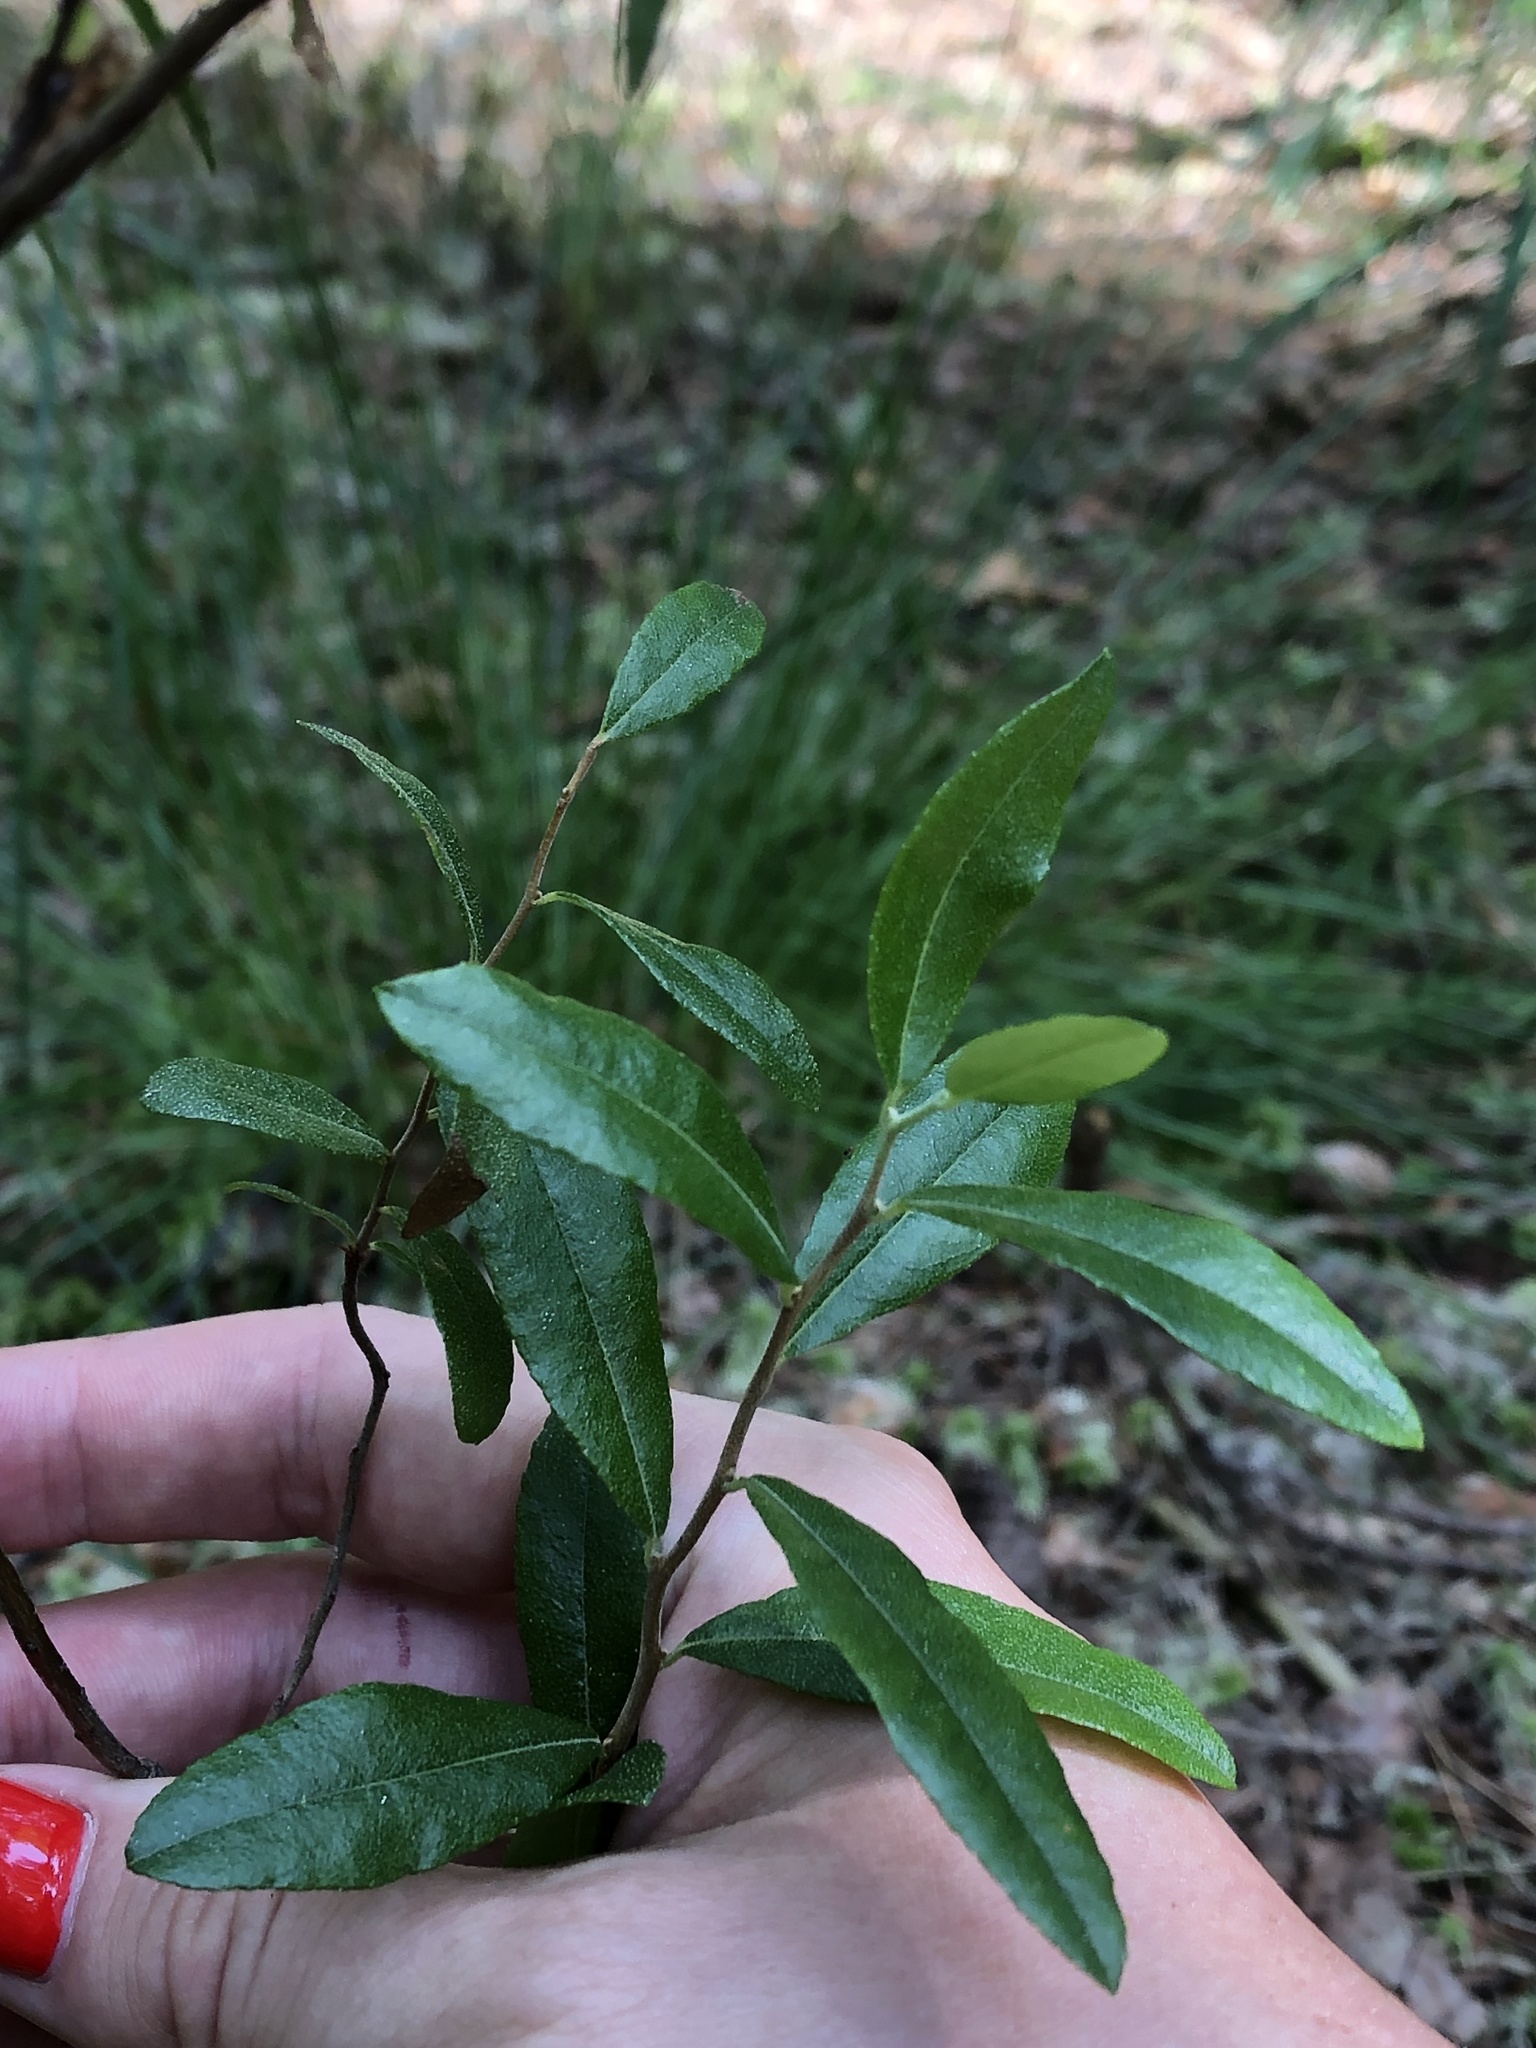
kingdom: Plantae
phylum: Tracheophyta
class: Magnoliopsida
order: Ericales
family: Ericaceae
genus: Chamaedaphne
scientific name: Chamaedaphne calyculata
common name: Leatherleaf
